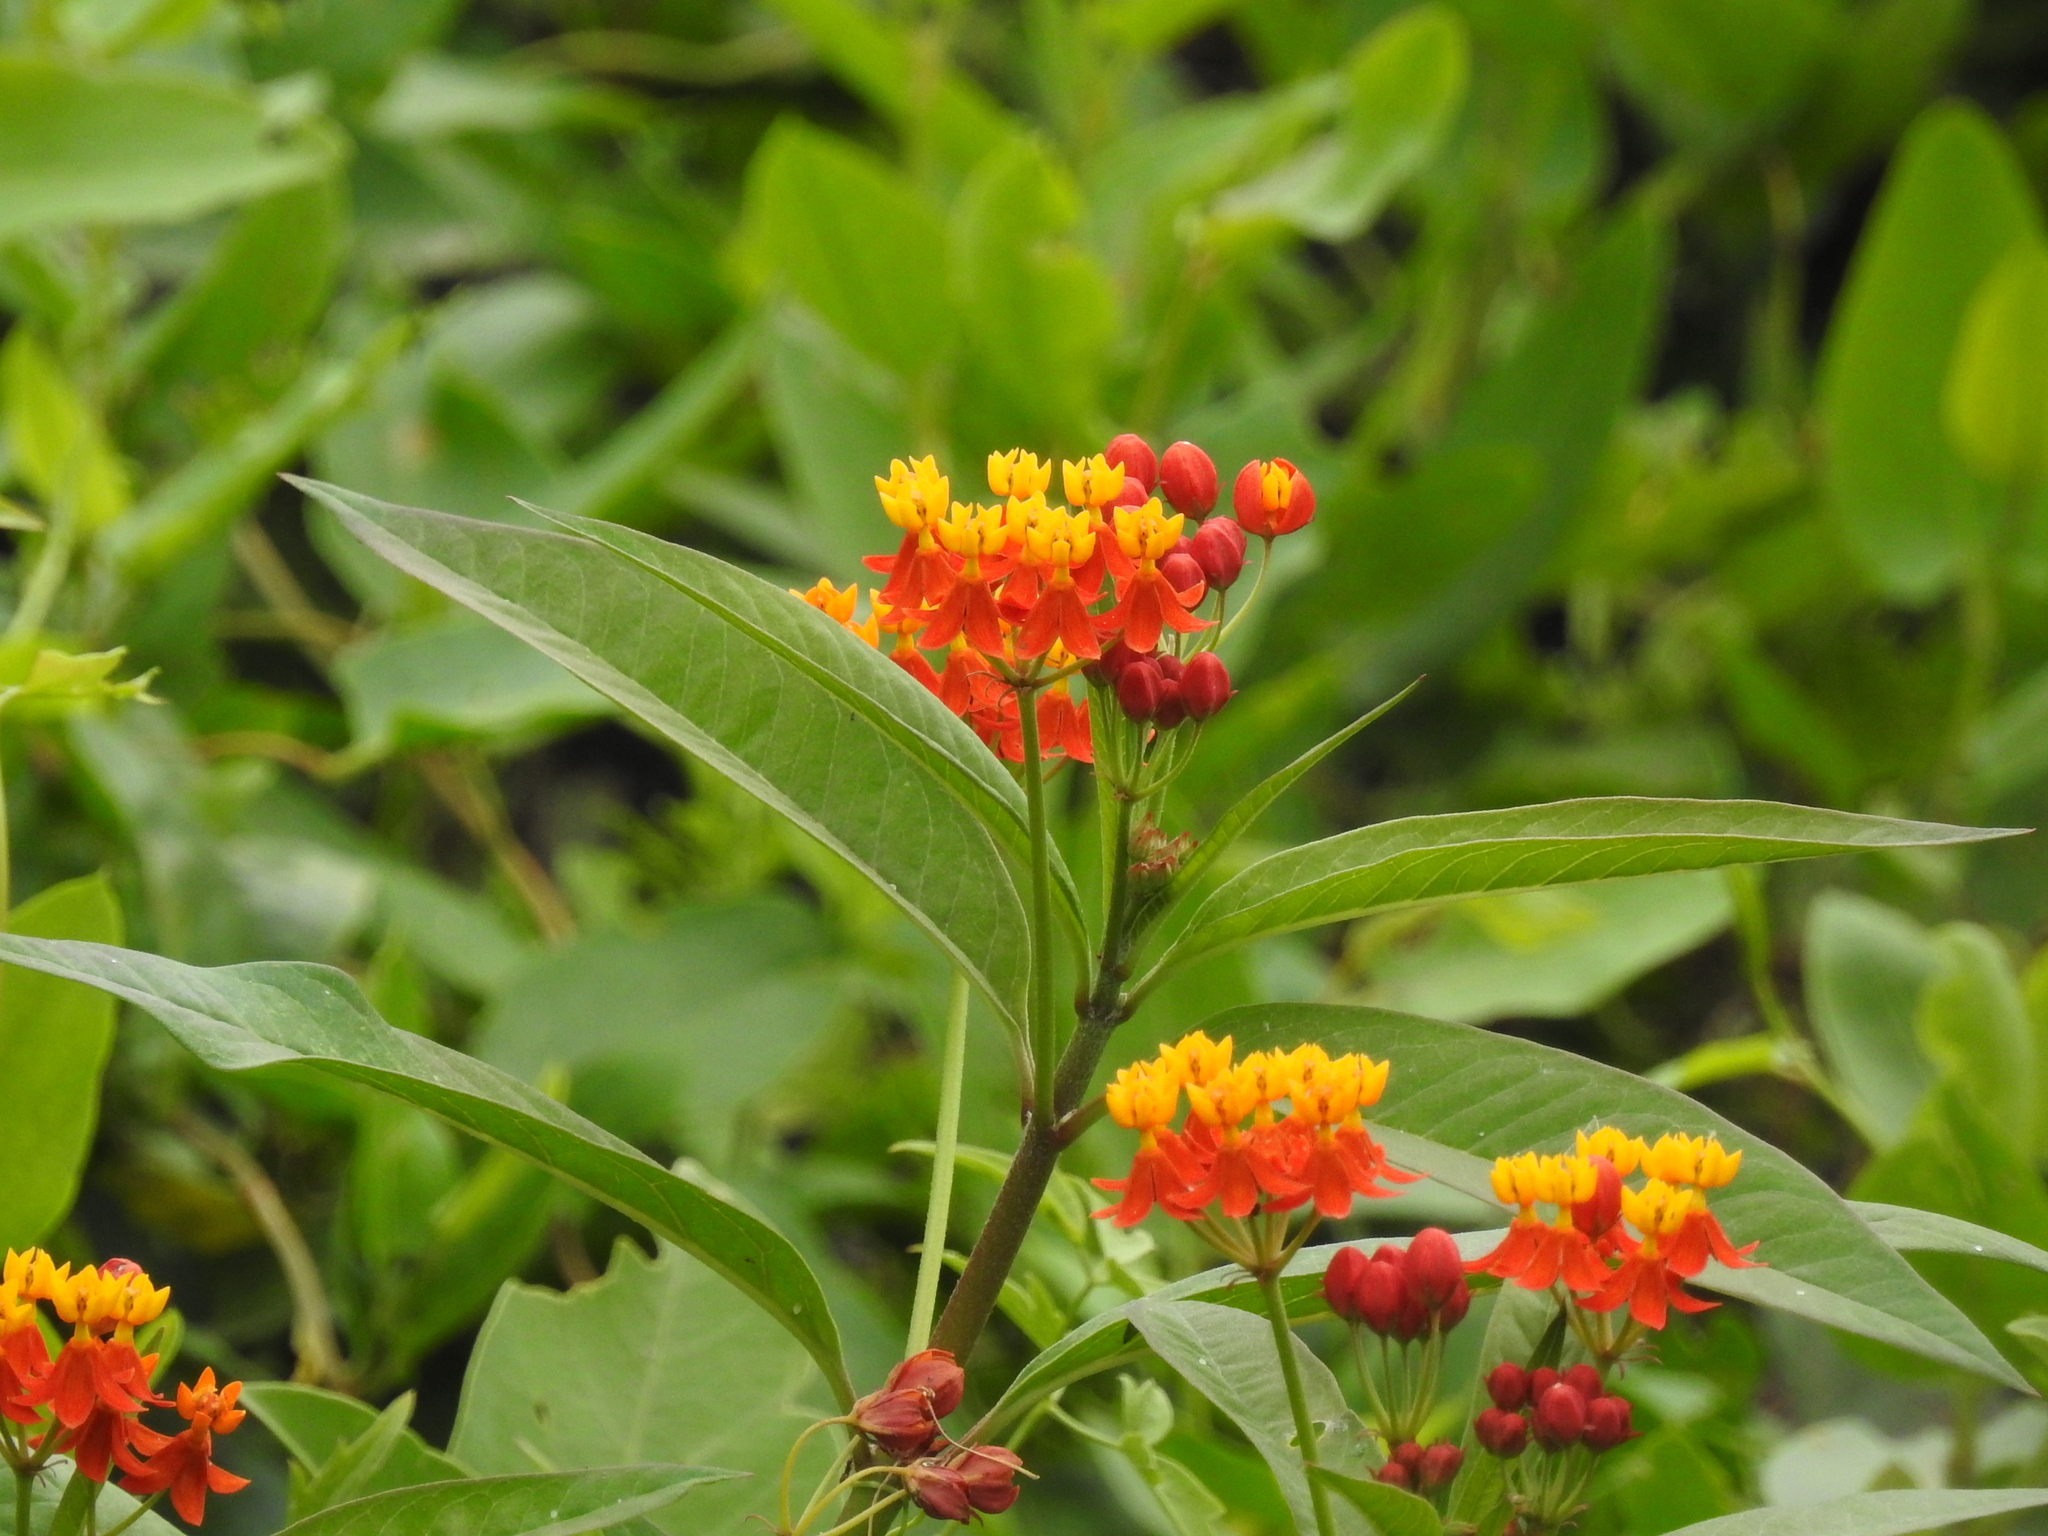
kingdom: Plantae
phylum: Tracheophyta
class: Magnoliopsida
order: Gentianales
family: Apocynaceae
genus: Asclepias
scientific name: Asclepias curassavica
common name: Bloodflower
